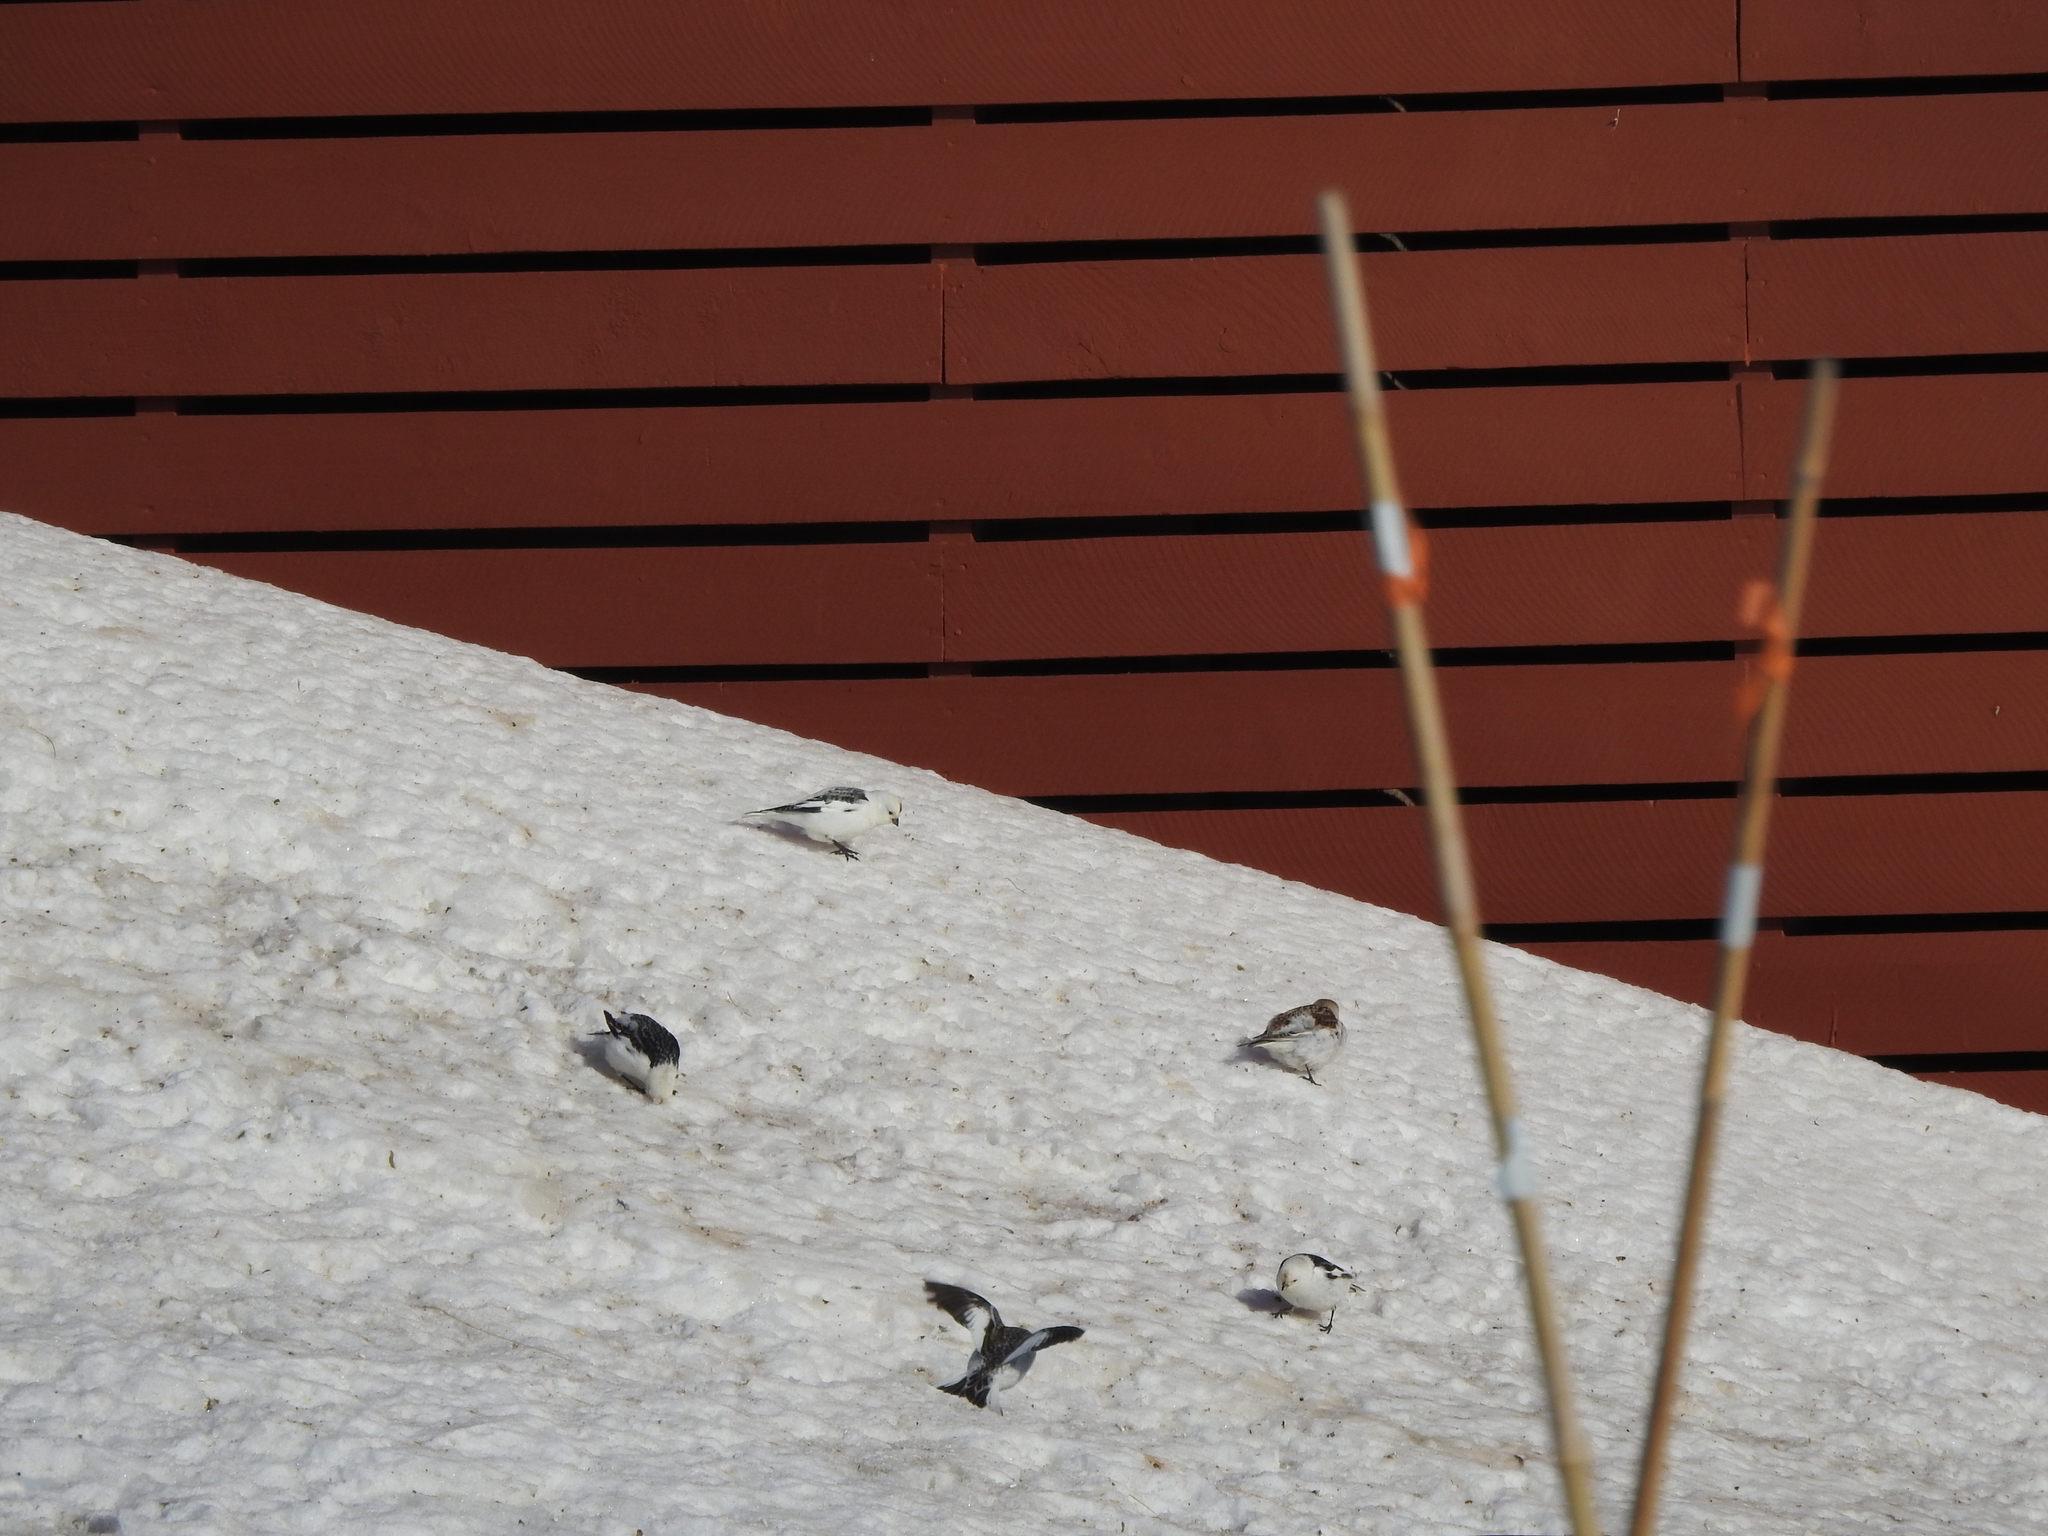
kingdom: Animalia
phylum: Chordata
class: Aves
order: Passeriformes
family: Calcariidae
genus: Plectrophenax
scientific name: Plectrophenax nivalis
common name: Snow bunting
